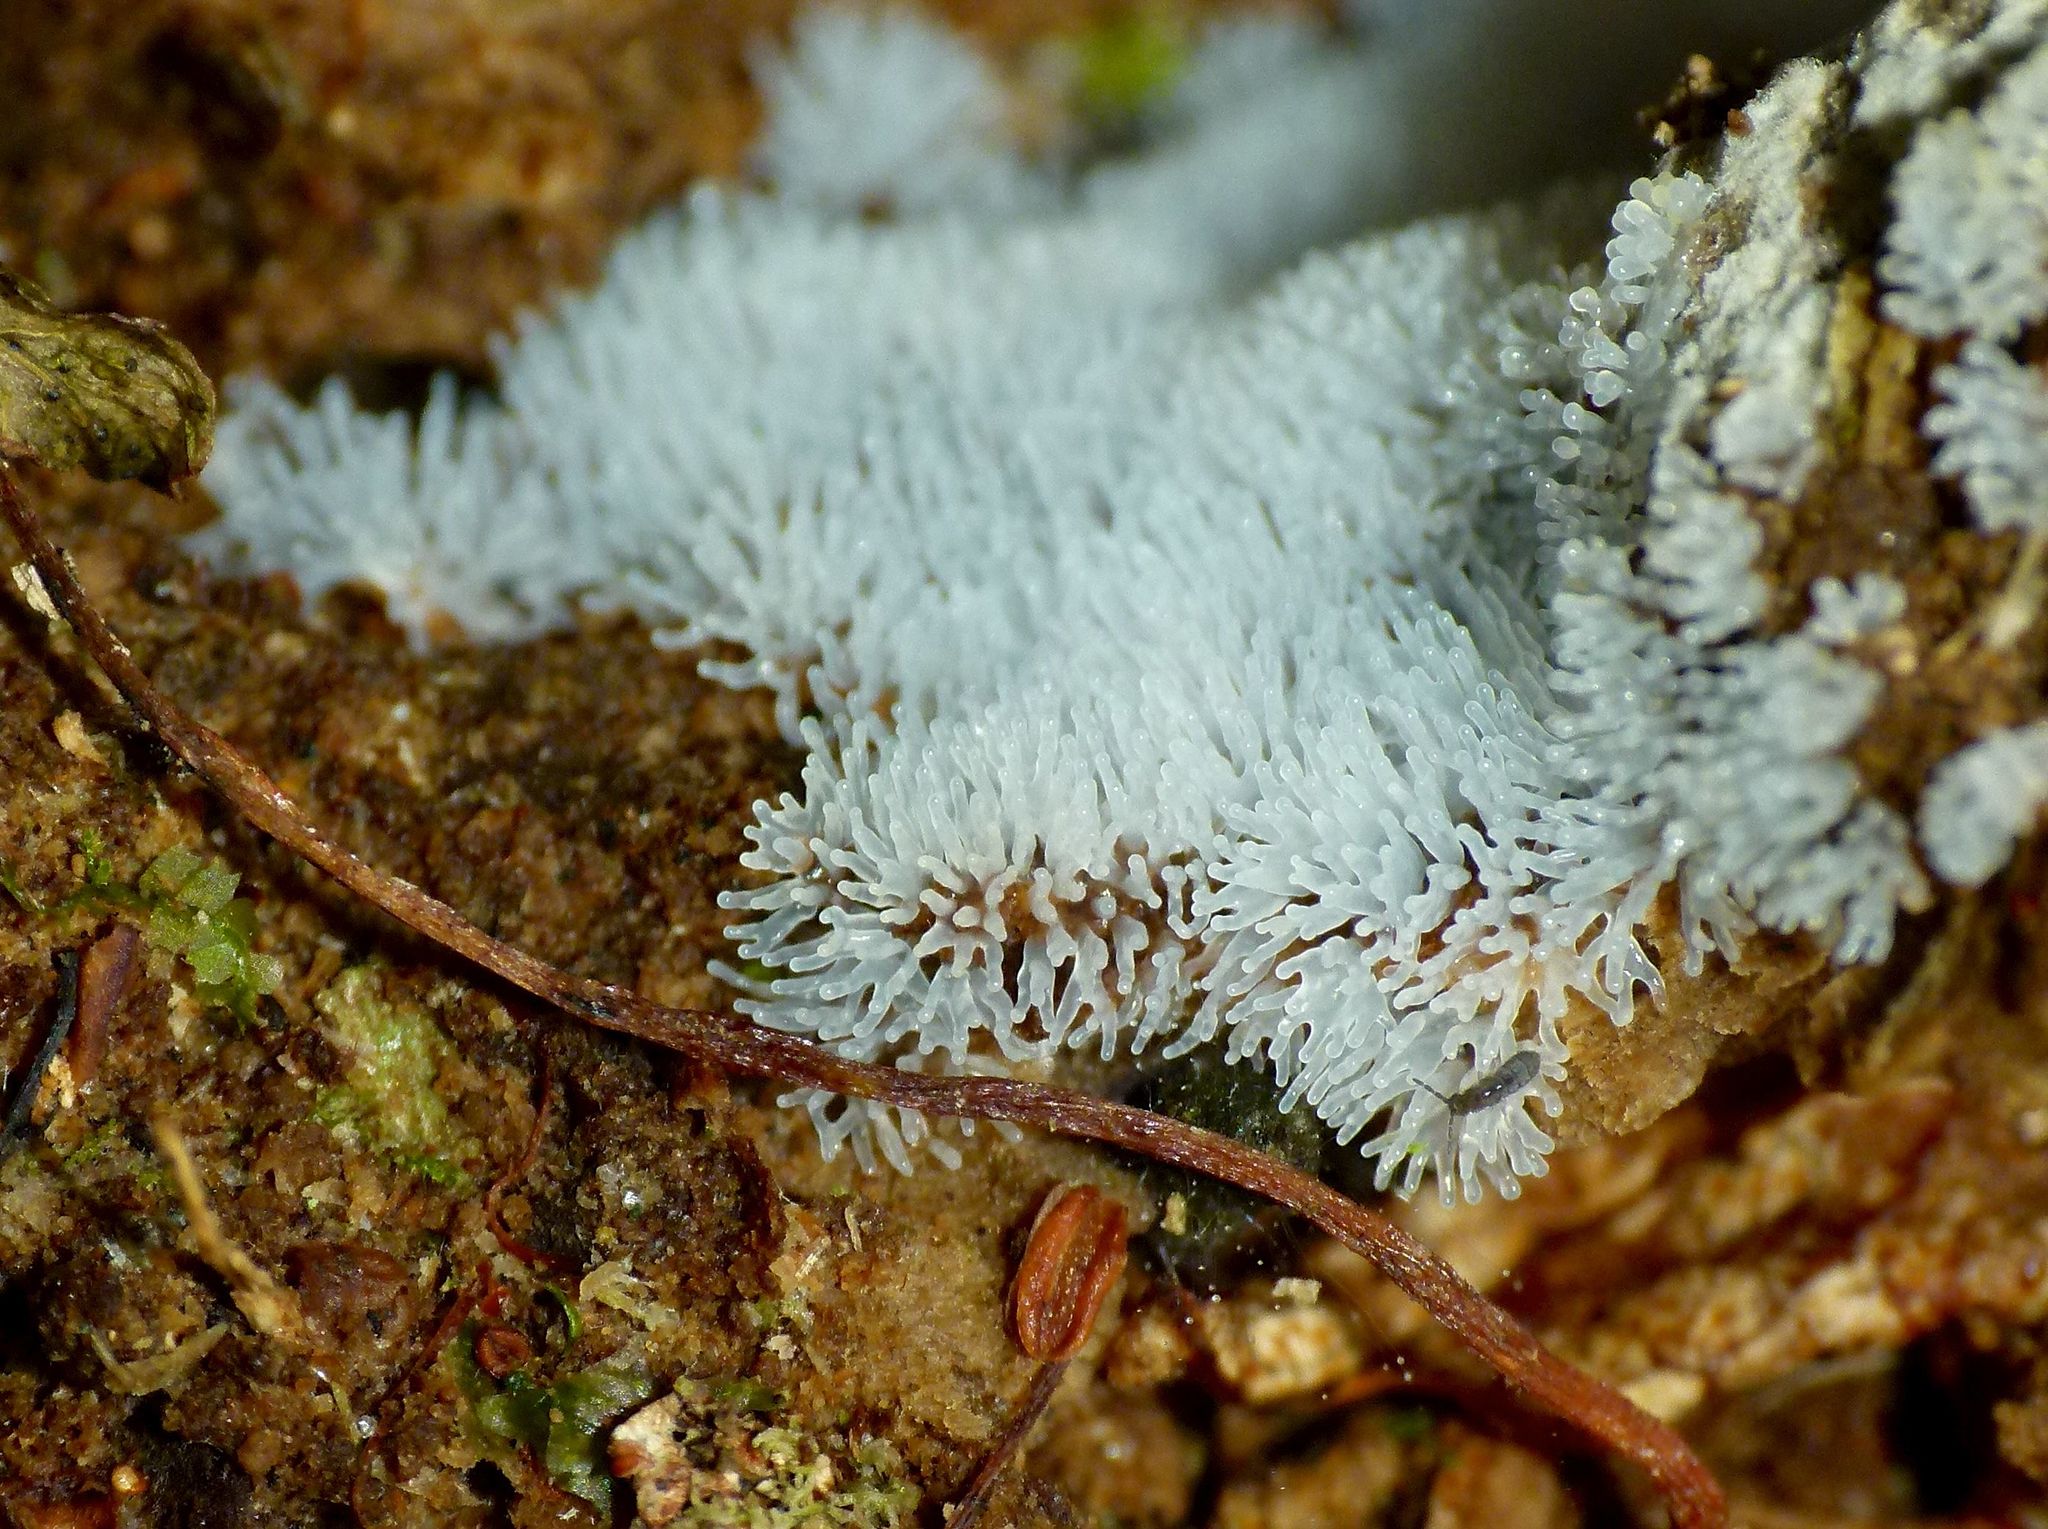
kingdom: Protozoa
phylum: Mycetozoa
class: Protosteliomycetes
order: Ceratiomyxales
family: Ceratiomyxaceae
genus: Ceratiomyxa
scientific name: Ceratiomyxa fruticulosa
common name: Honeycomb coral slime mold
